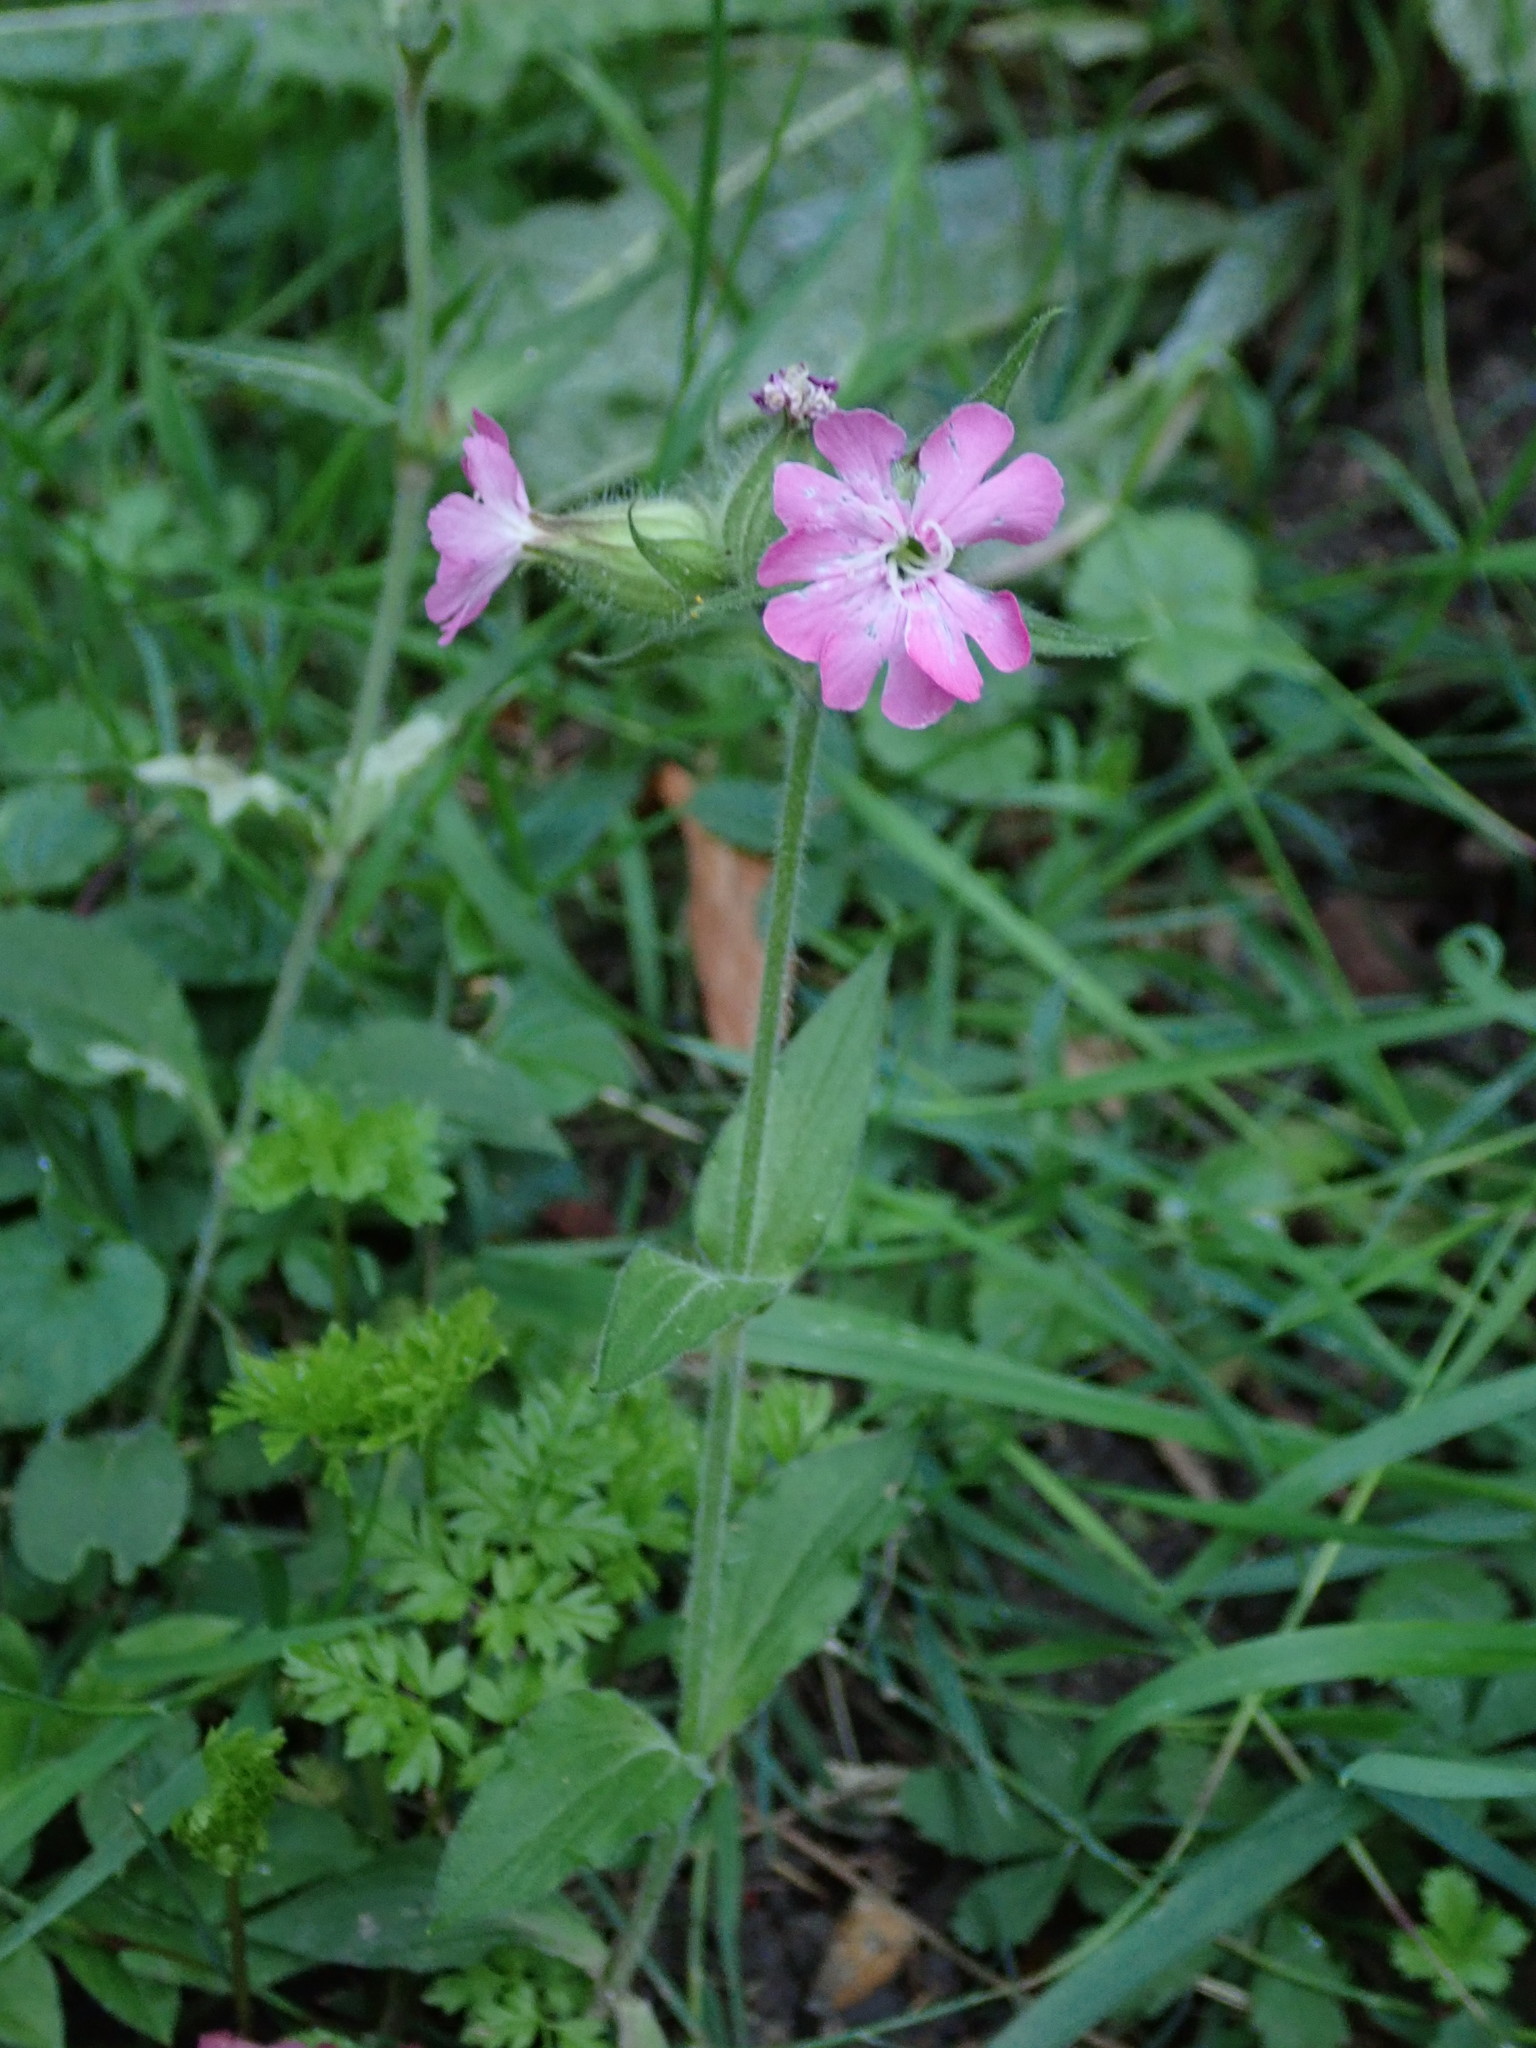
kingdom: Plantae
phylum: Tracheophyta
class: Magnoliopsida
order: Caryophyllales
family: Caryophyllaceae
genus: Silene
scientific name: Silene dioica
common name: Red campion
